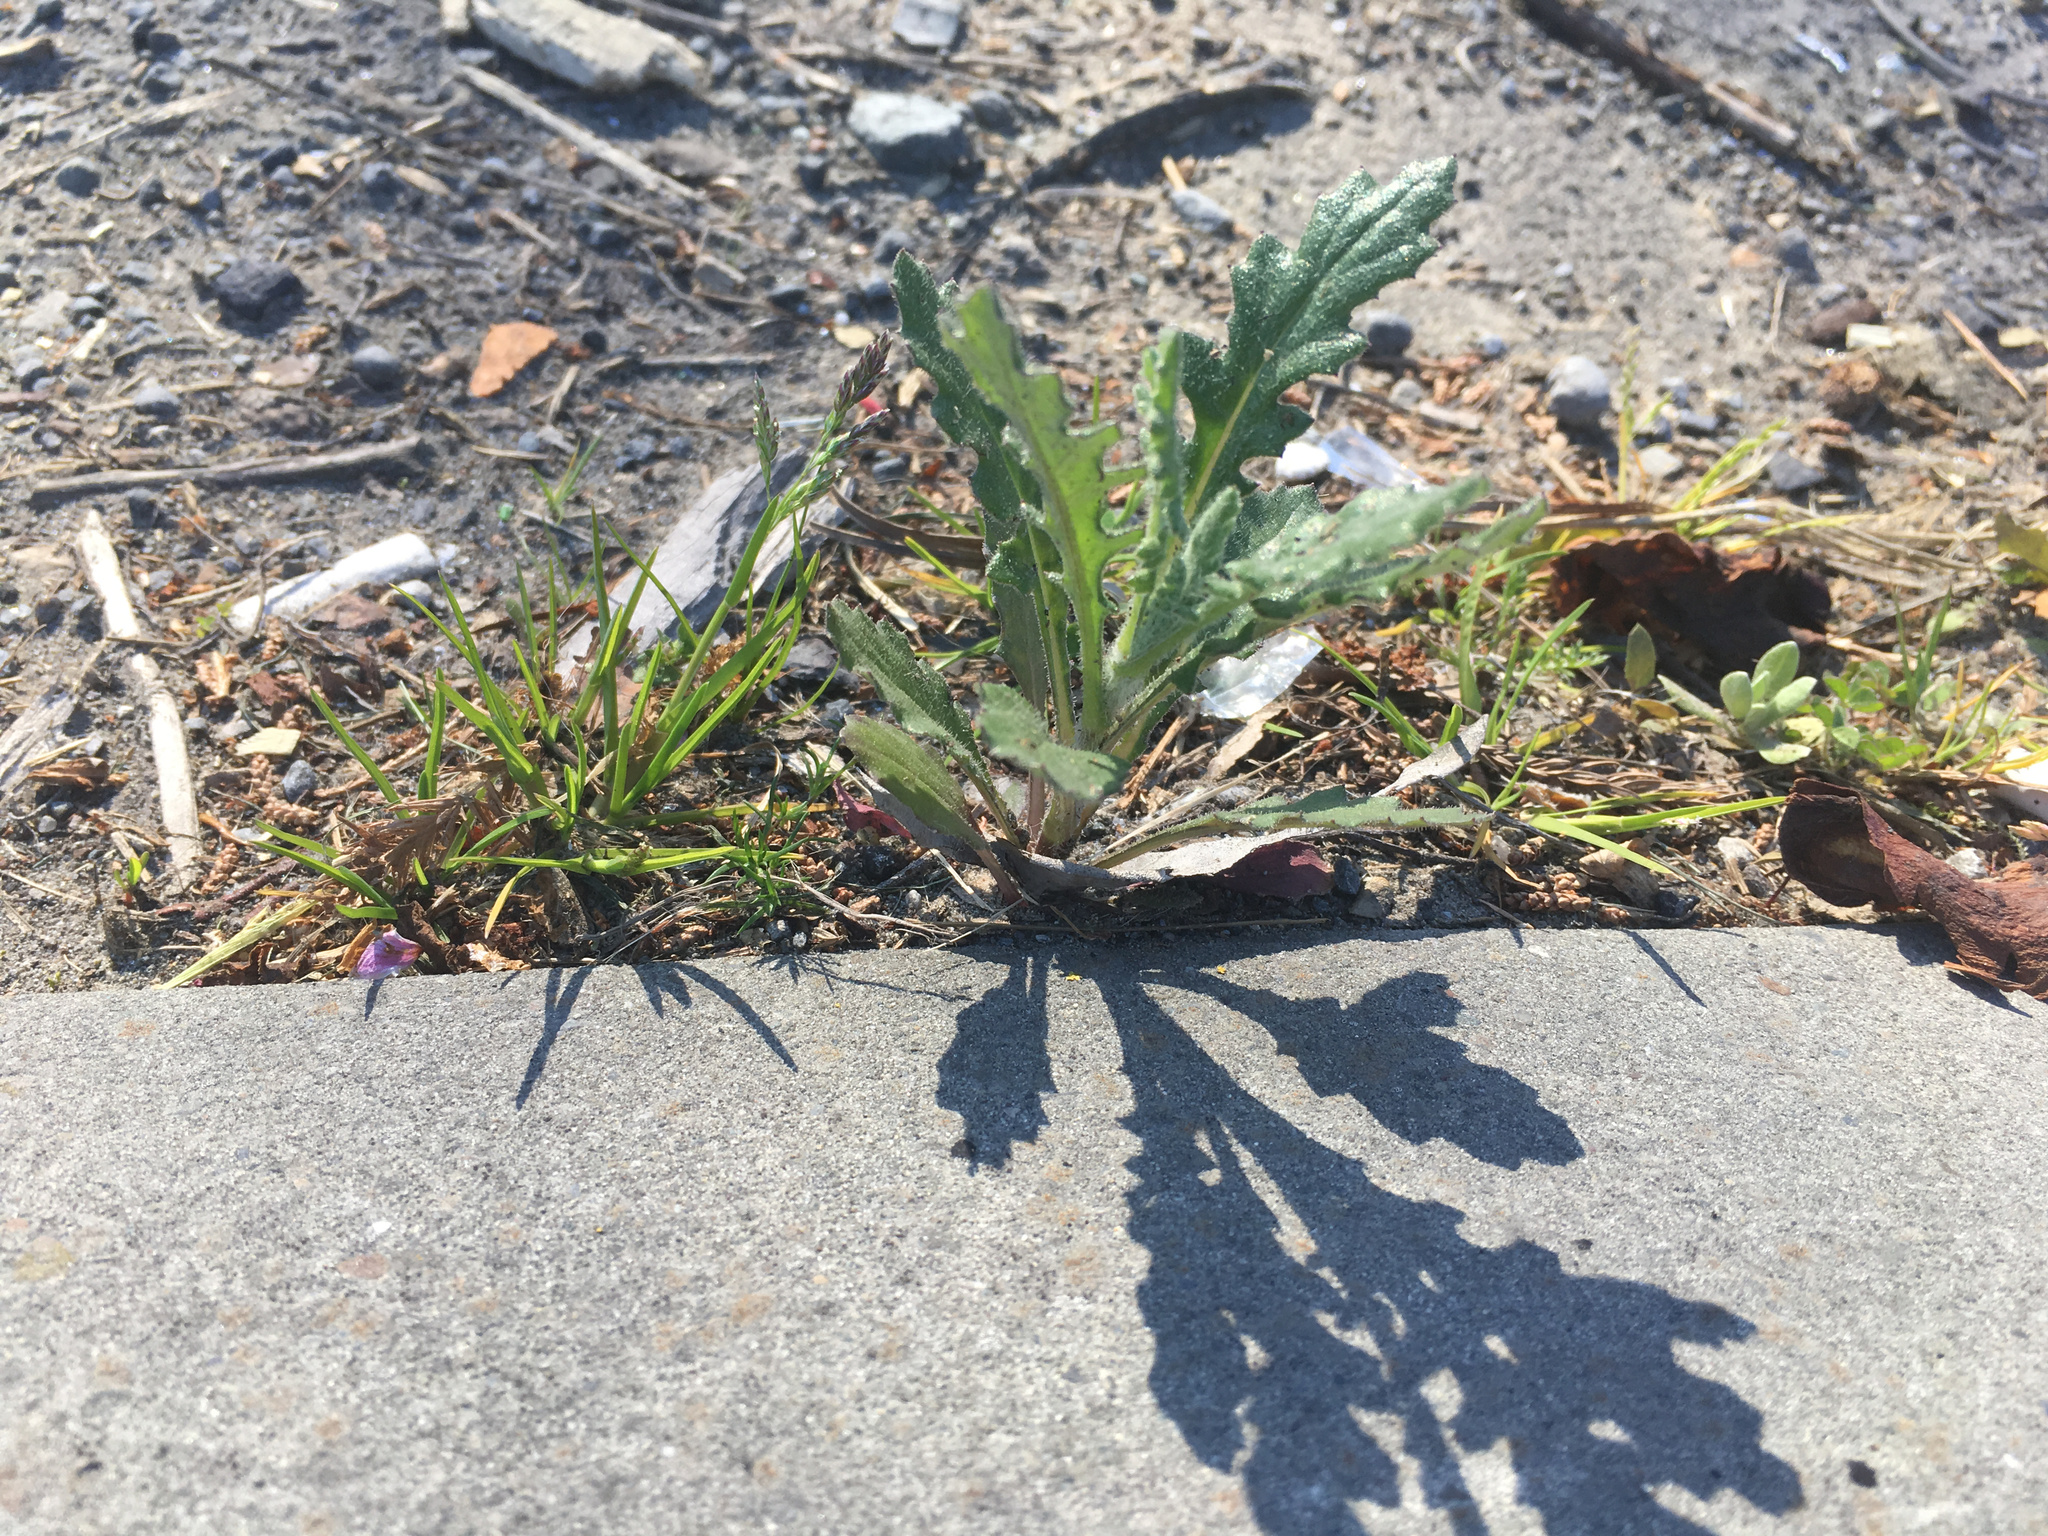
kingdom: Plantae
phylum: Tracheophyta
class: Magnoliopsida
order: Asterales
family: Asteraceae
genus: Senecio
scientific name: Senecio glomeratus
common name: Cutleaf burnweed
